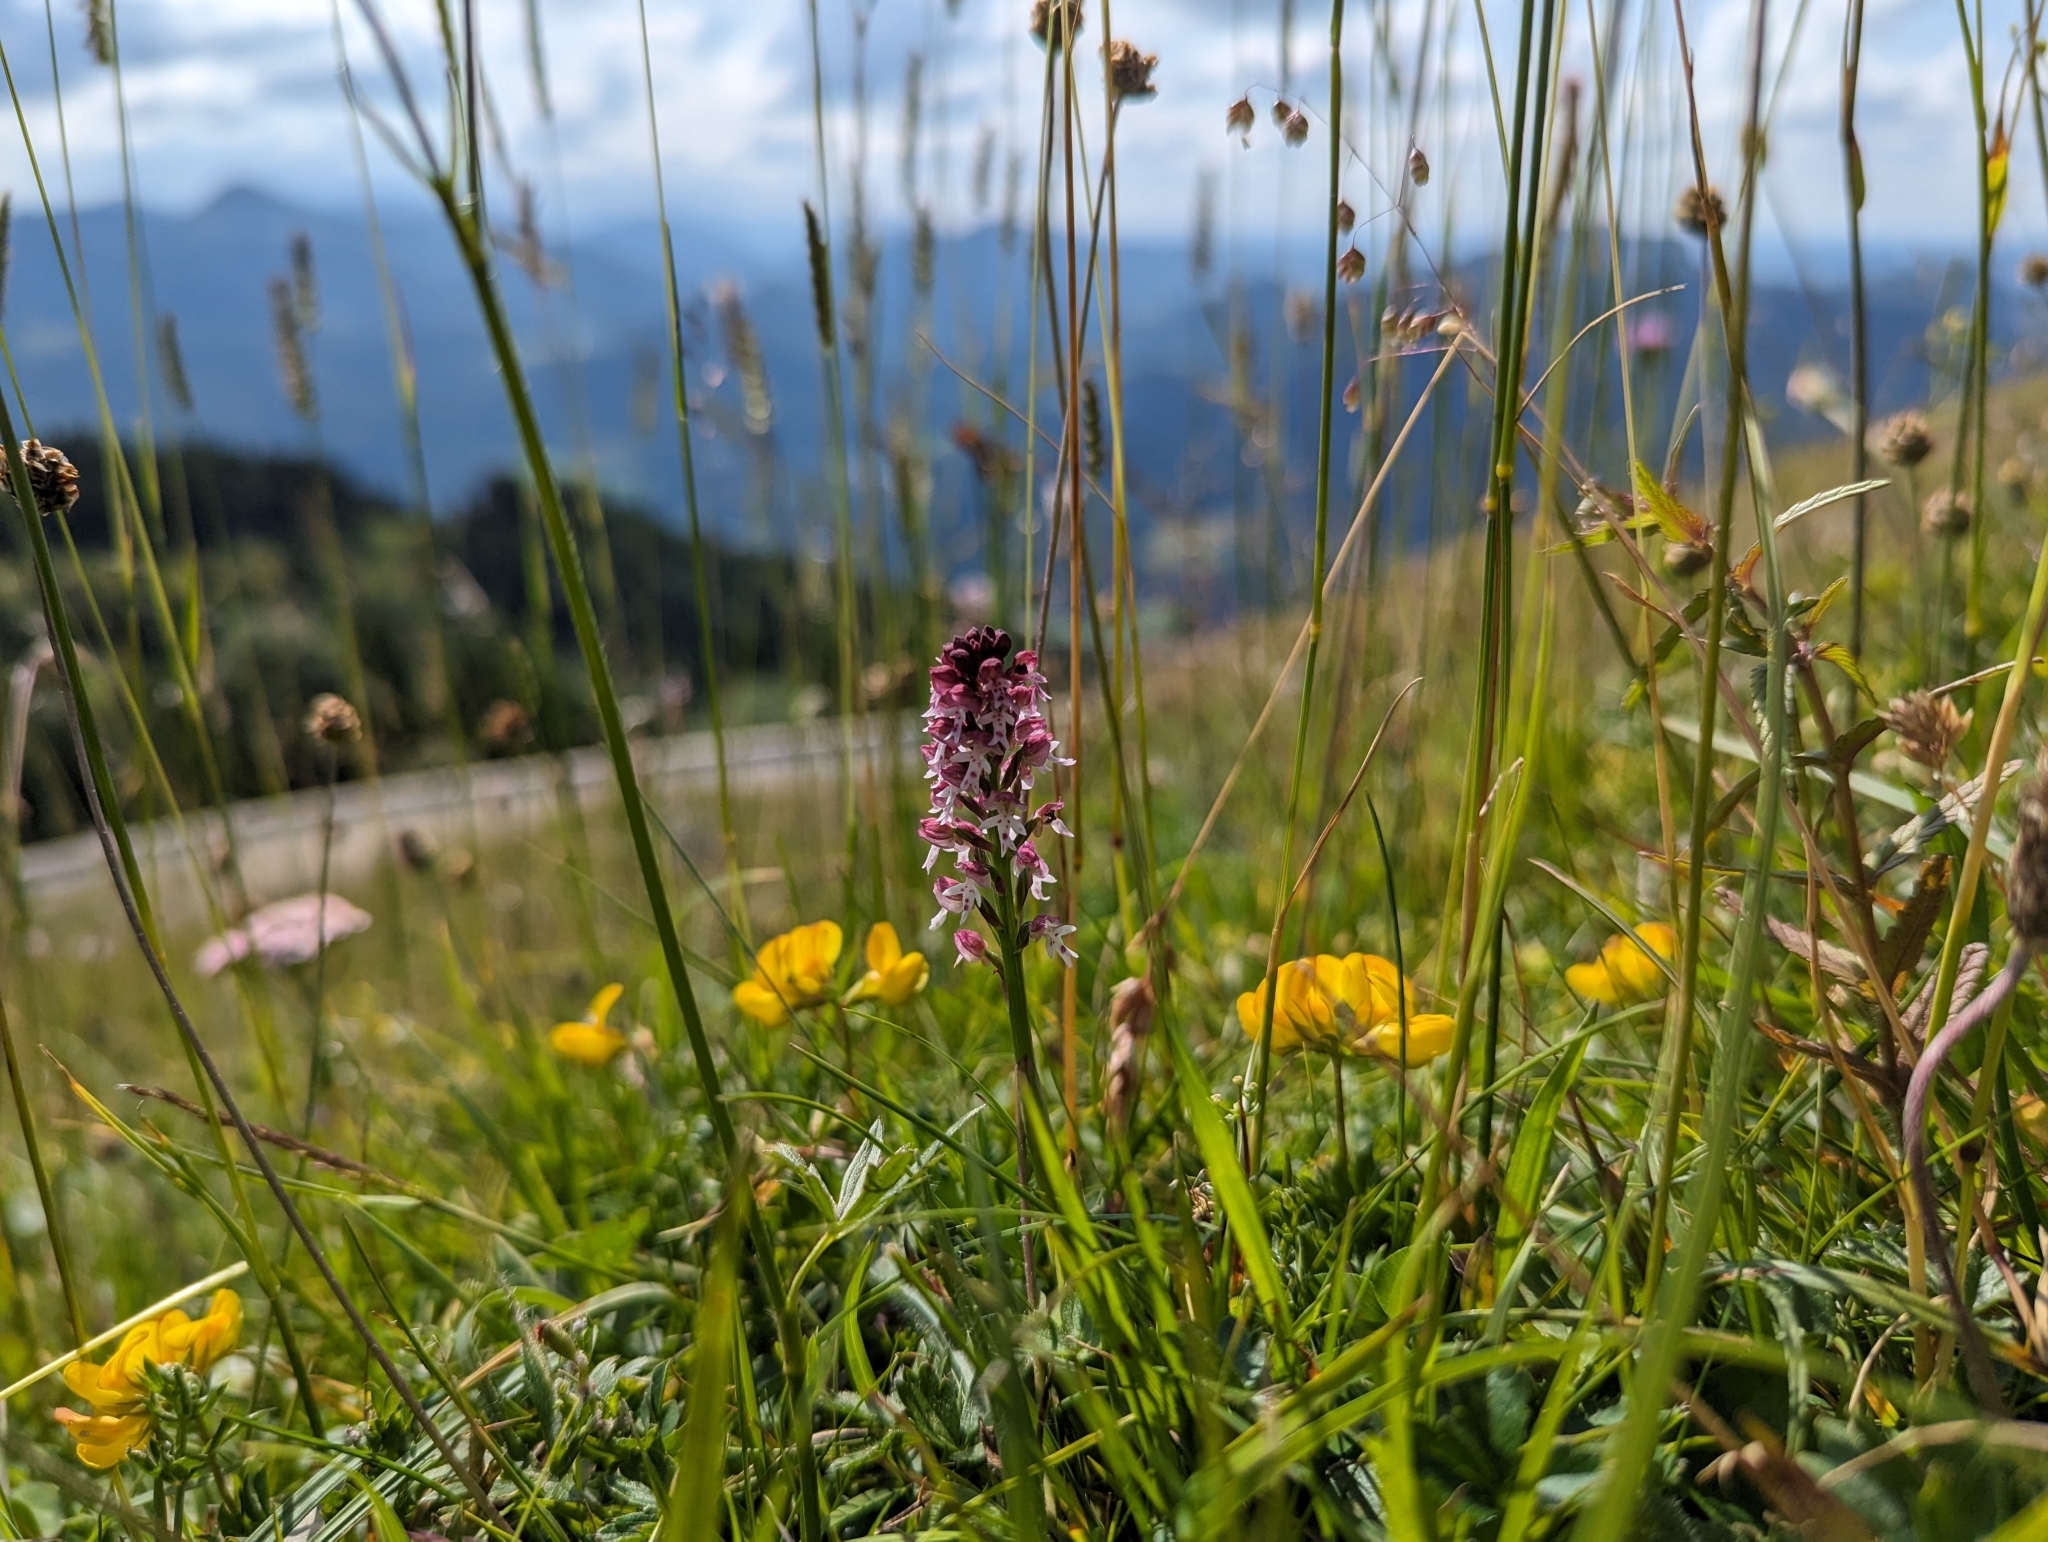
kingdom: Plantae
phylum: Tracheophyta
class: Liliopsida
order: Asparagales
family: Orchidaceae
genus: Neotinea
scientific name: Neotinea ustulata
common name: Burnt orchid
